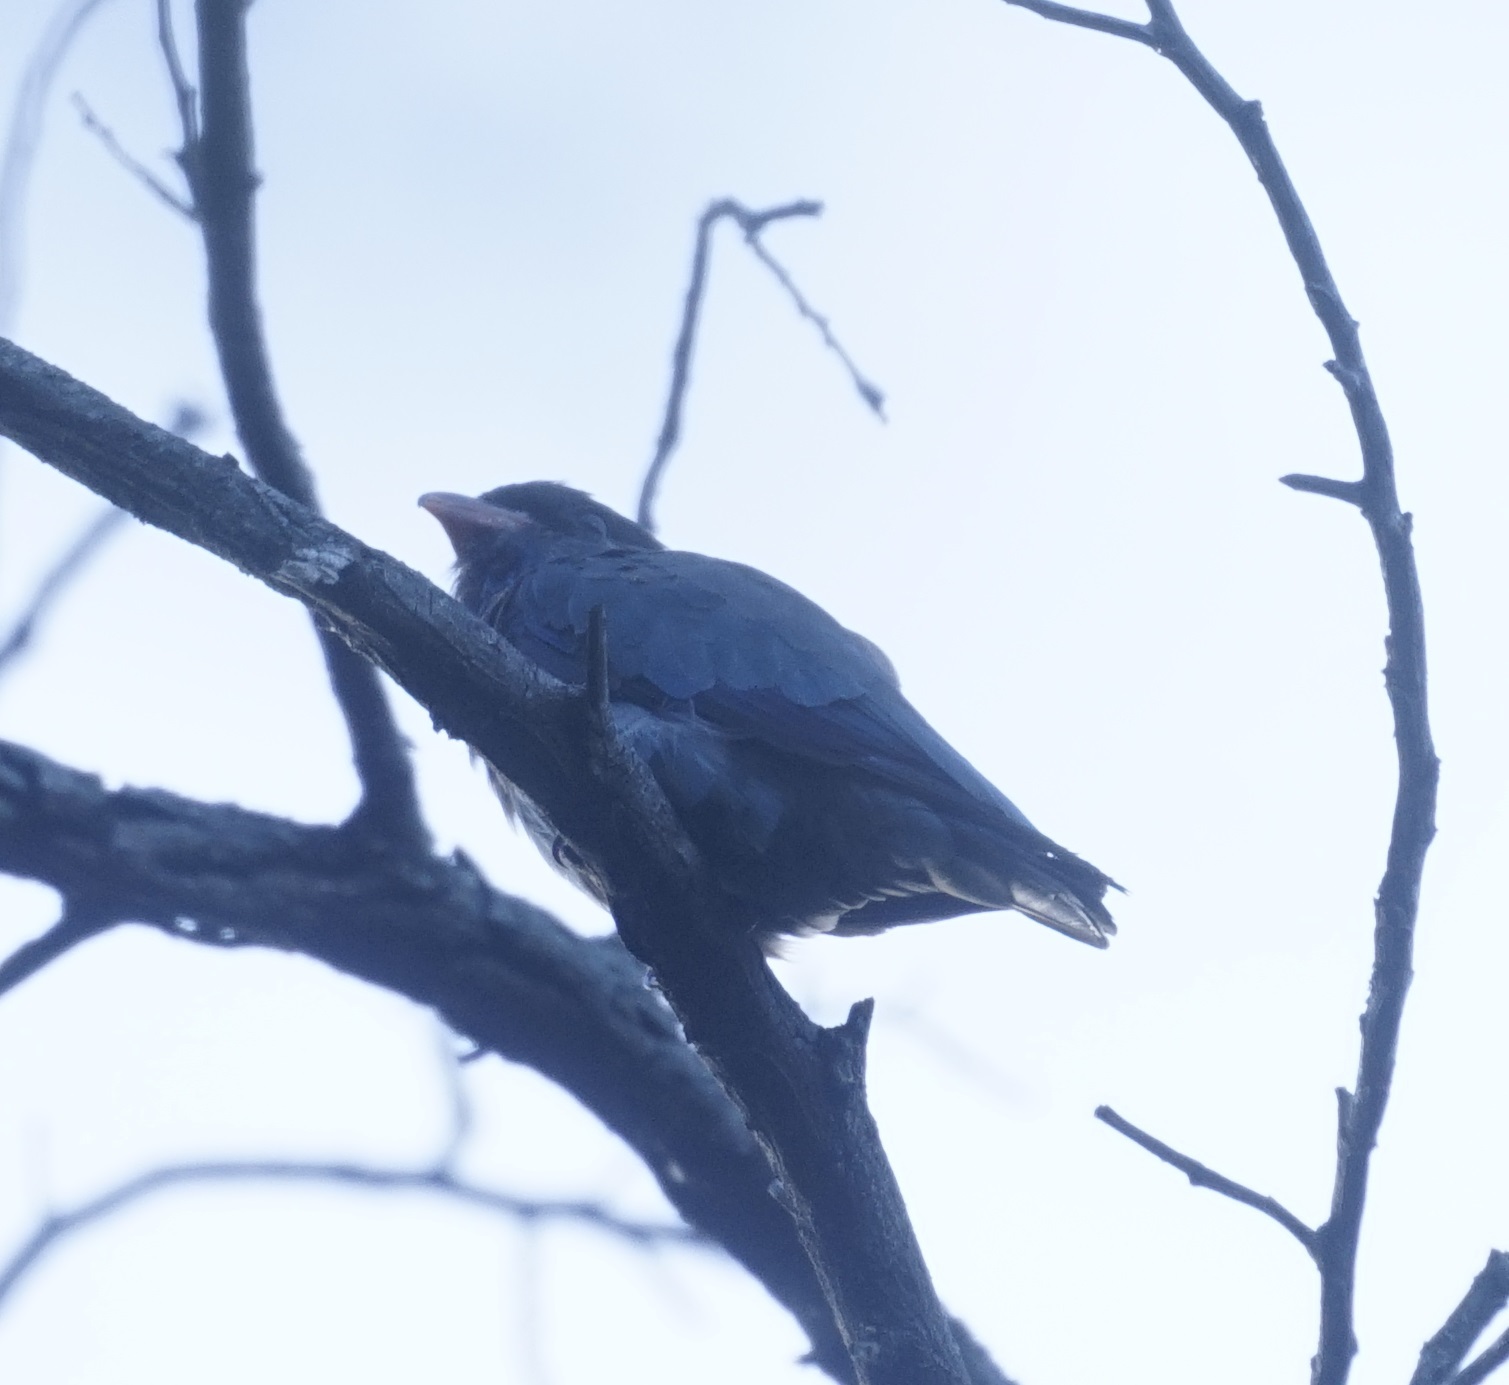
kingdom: Animalia
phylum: Chordata
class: Aves
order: Coraciiformes
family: Coraciidae
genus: Eurystomus
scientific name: Eurystomus orientalis
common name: Oriental dollarbird
